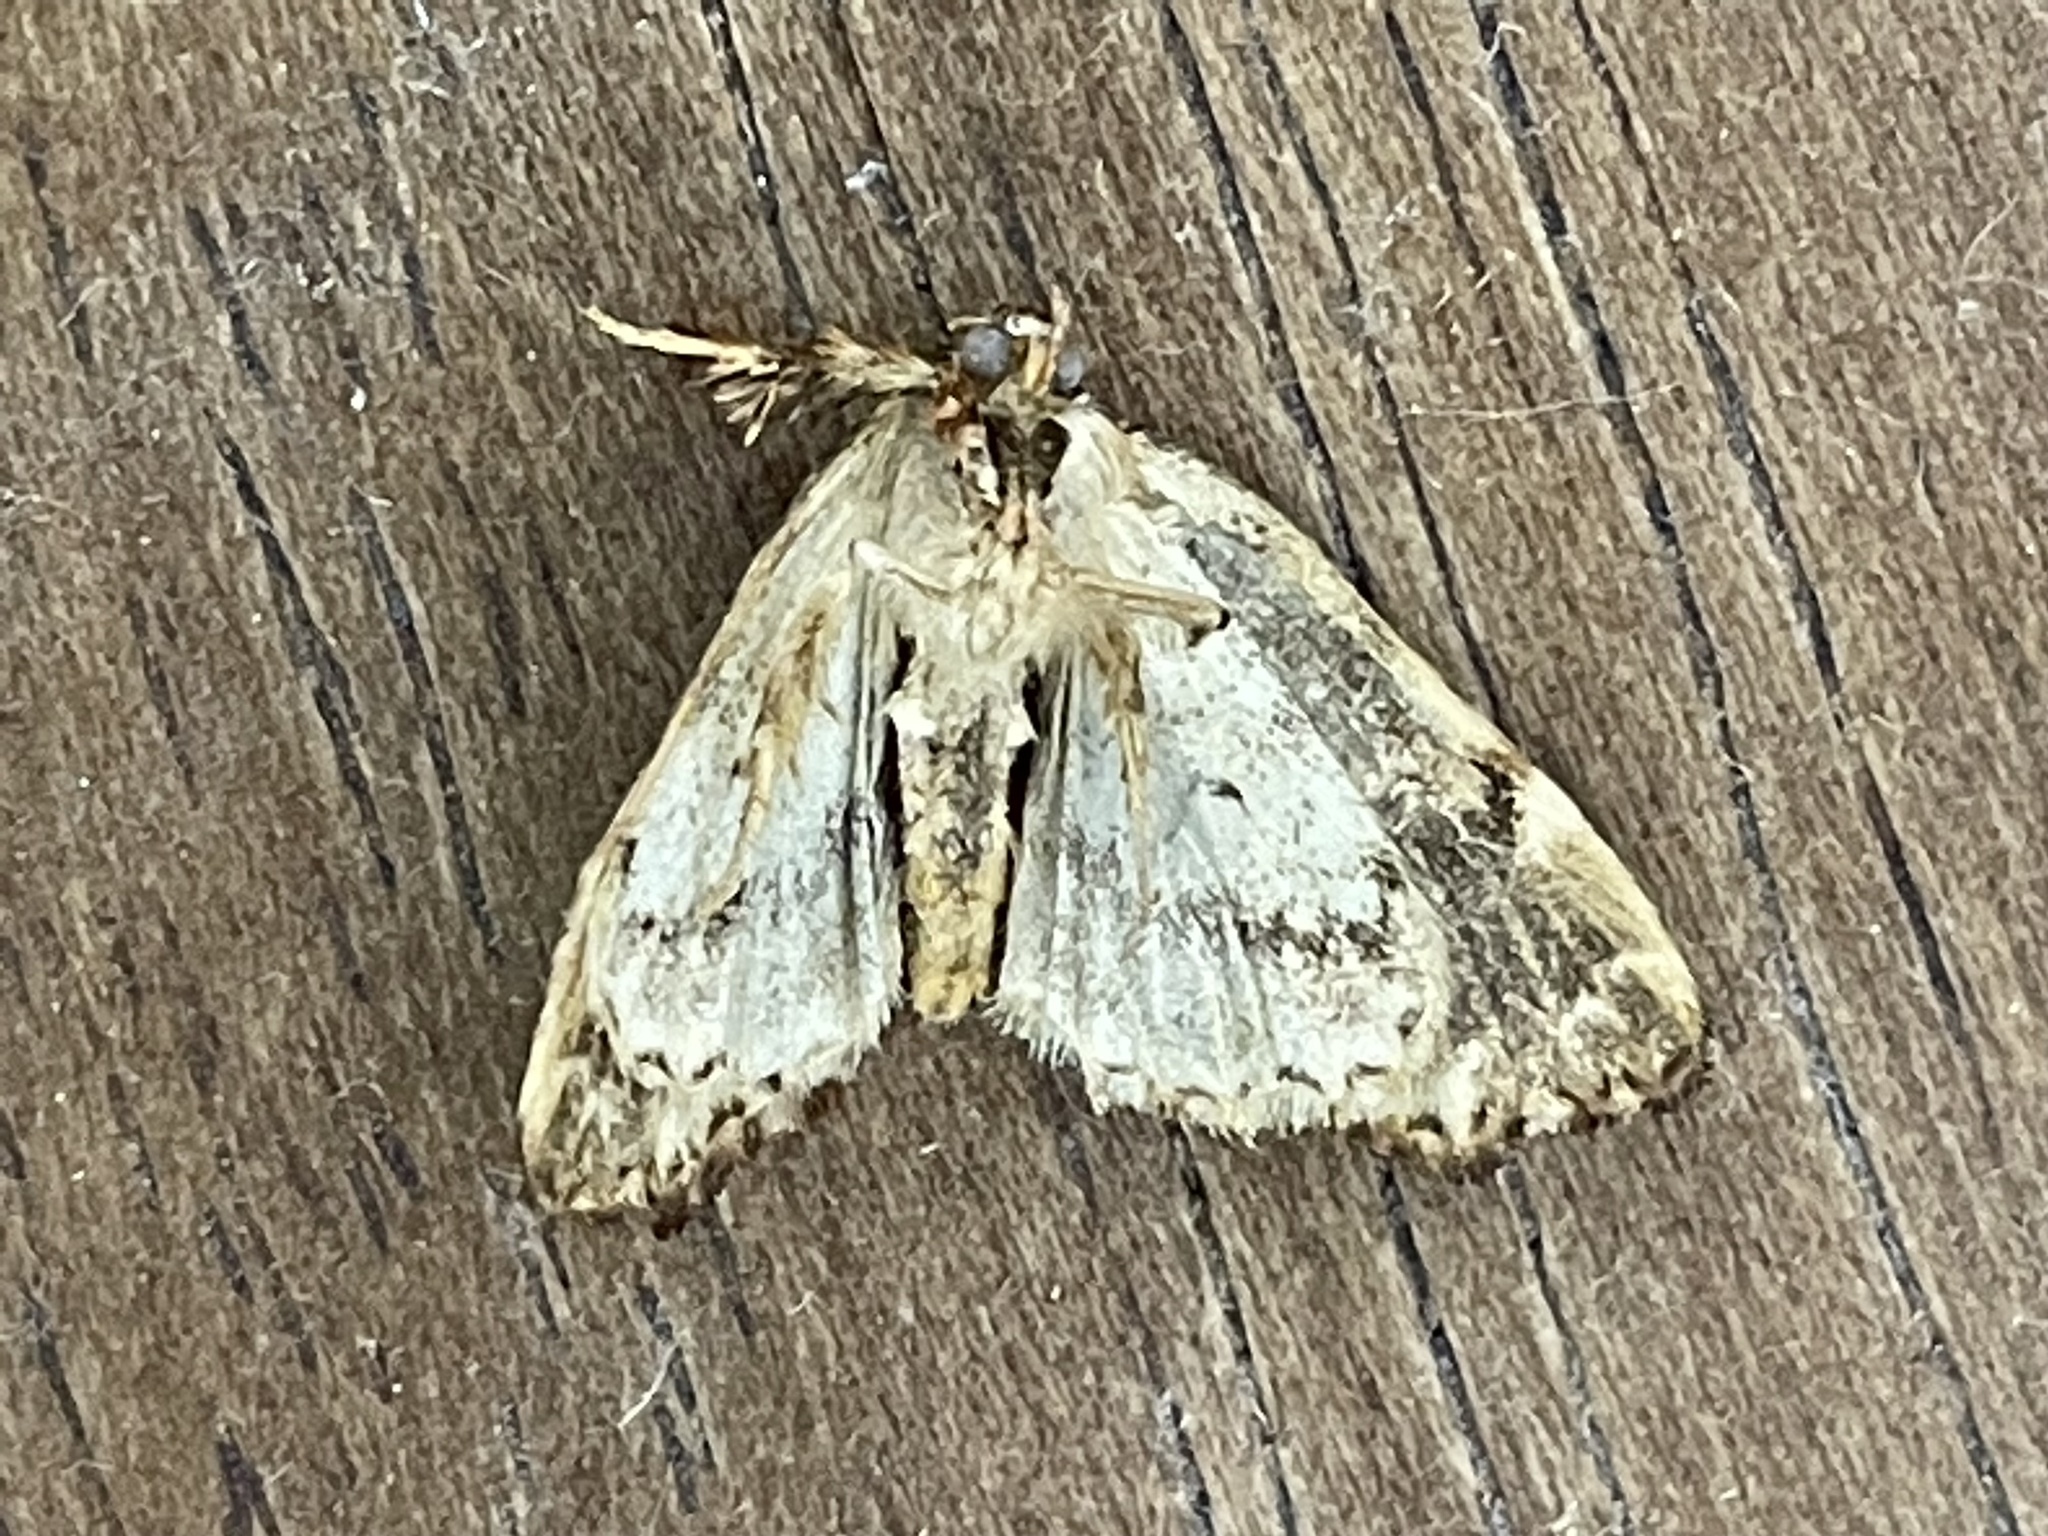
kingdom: Animalia
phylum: Arthropoda
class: Insecta
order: Lepidoptera
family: Noctuidae
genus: Callopistria
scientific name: Callopistria mollissima
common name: Pink-shaded fern moth
